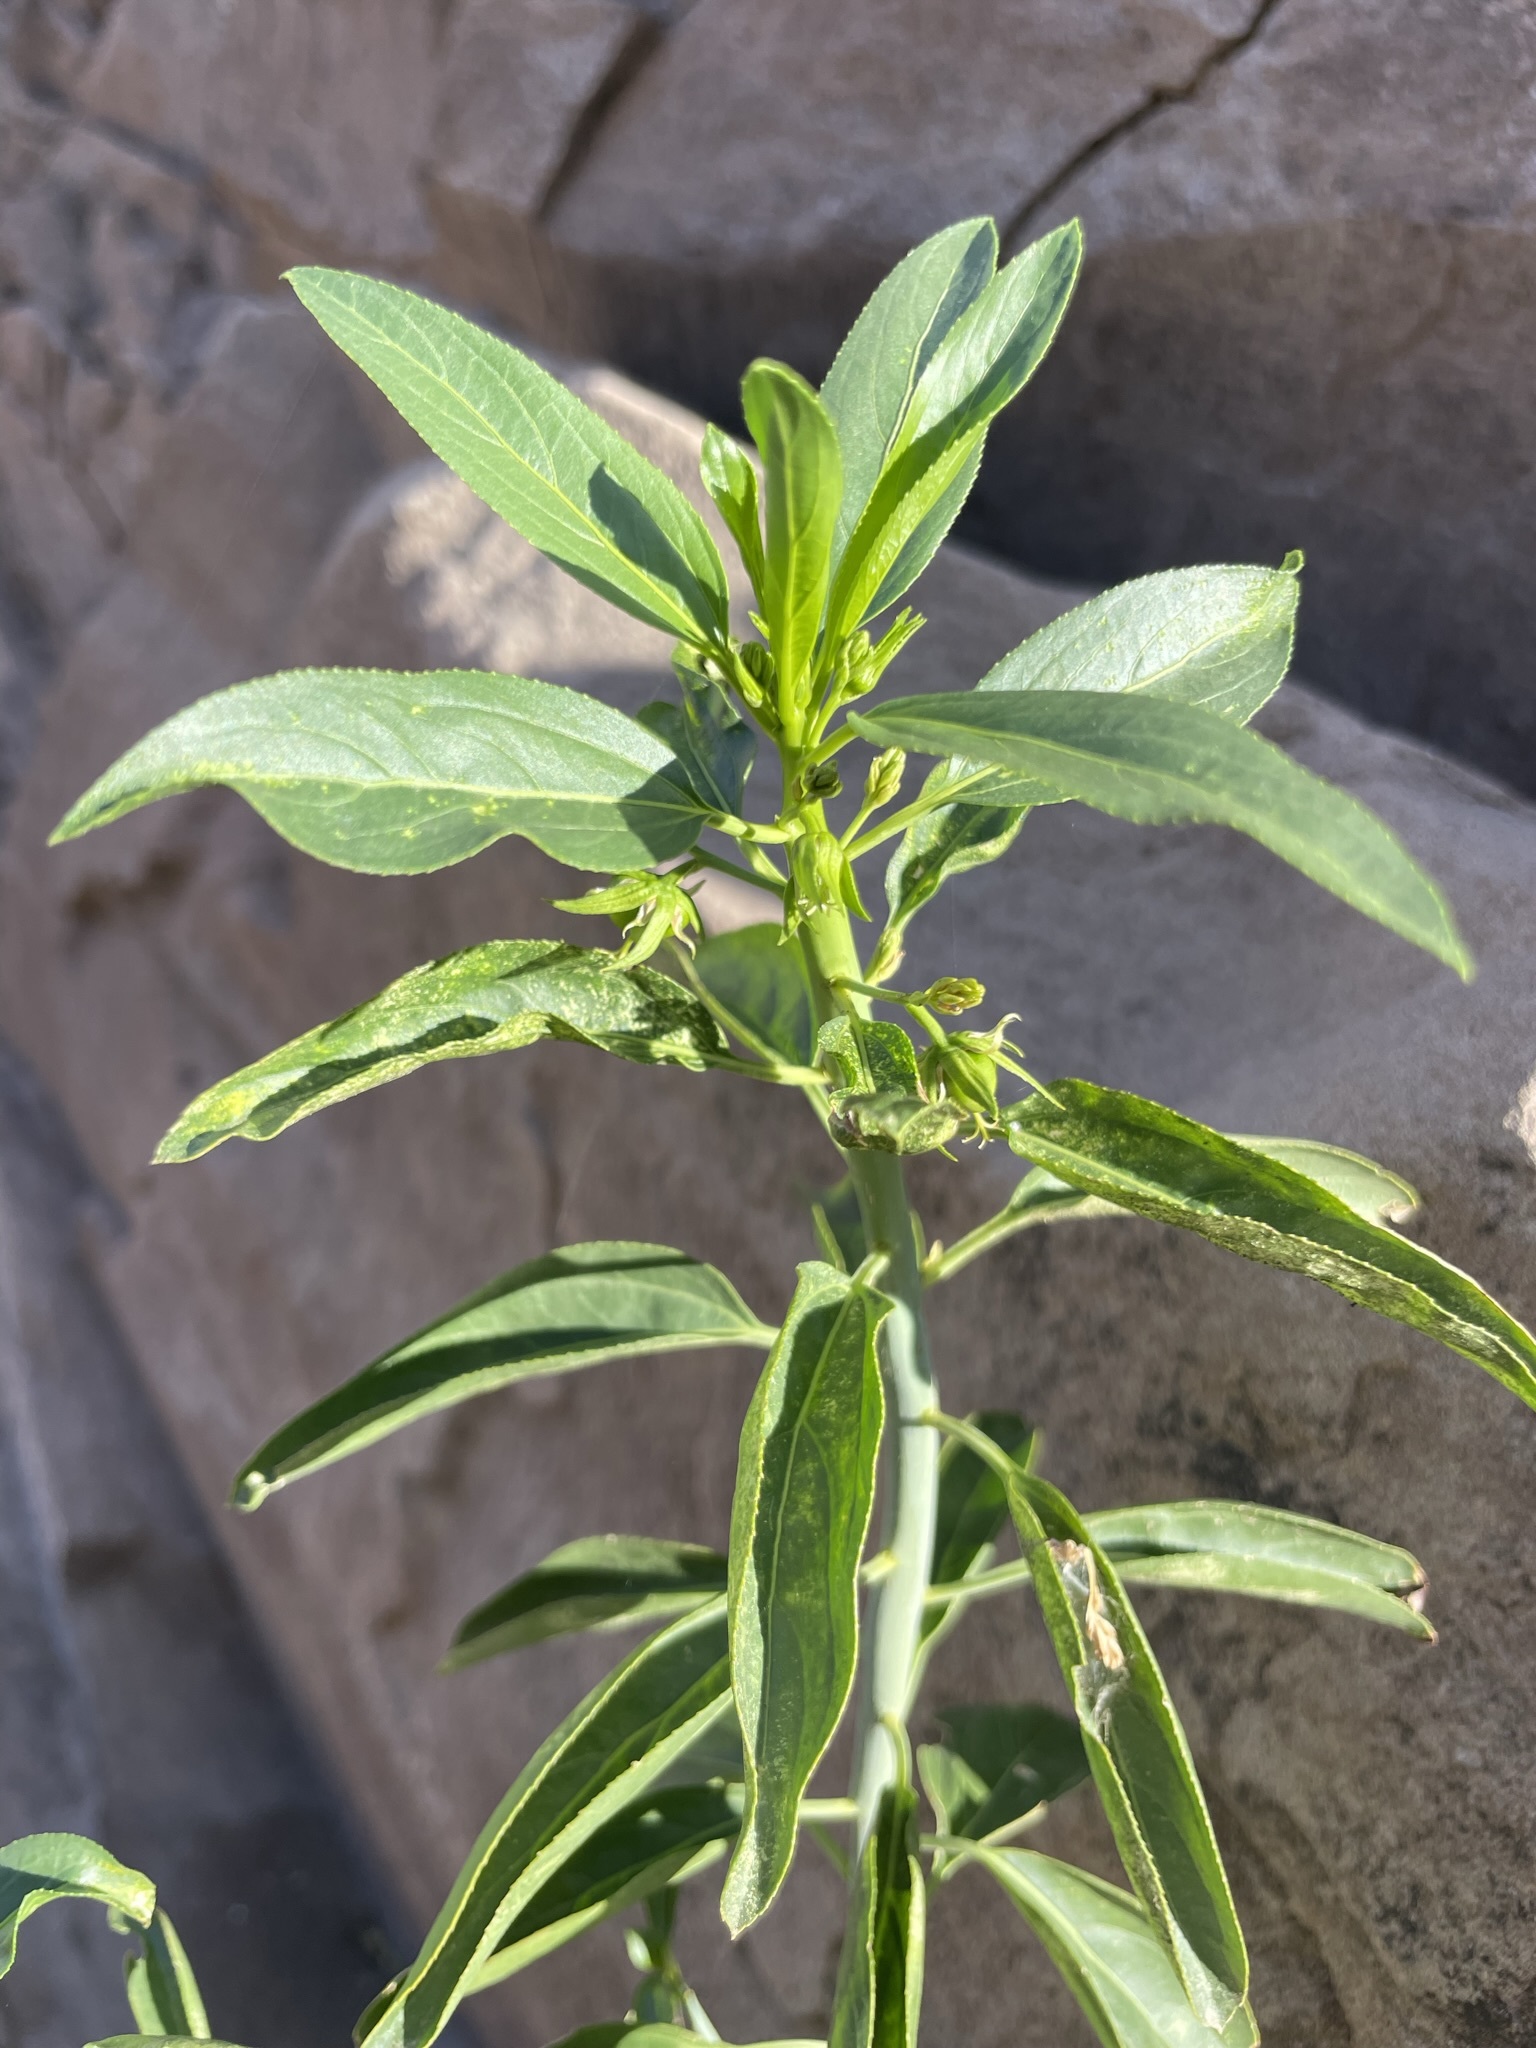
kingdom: Plantae
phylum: Tracheophyta
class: Magnoliopsida
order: Malpighiales
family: Euphorbiaceae
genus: Ditaxis
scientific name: Ditaxis brandegeei
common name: Sonoran silverbush
